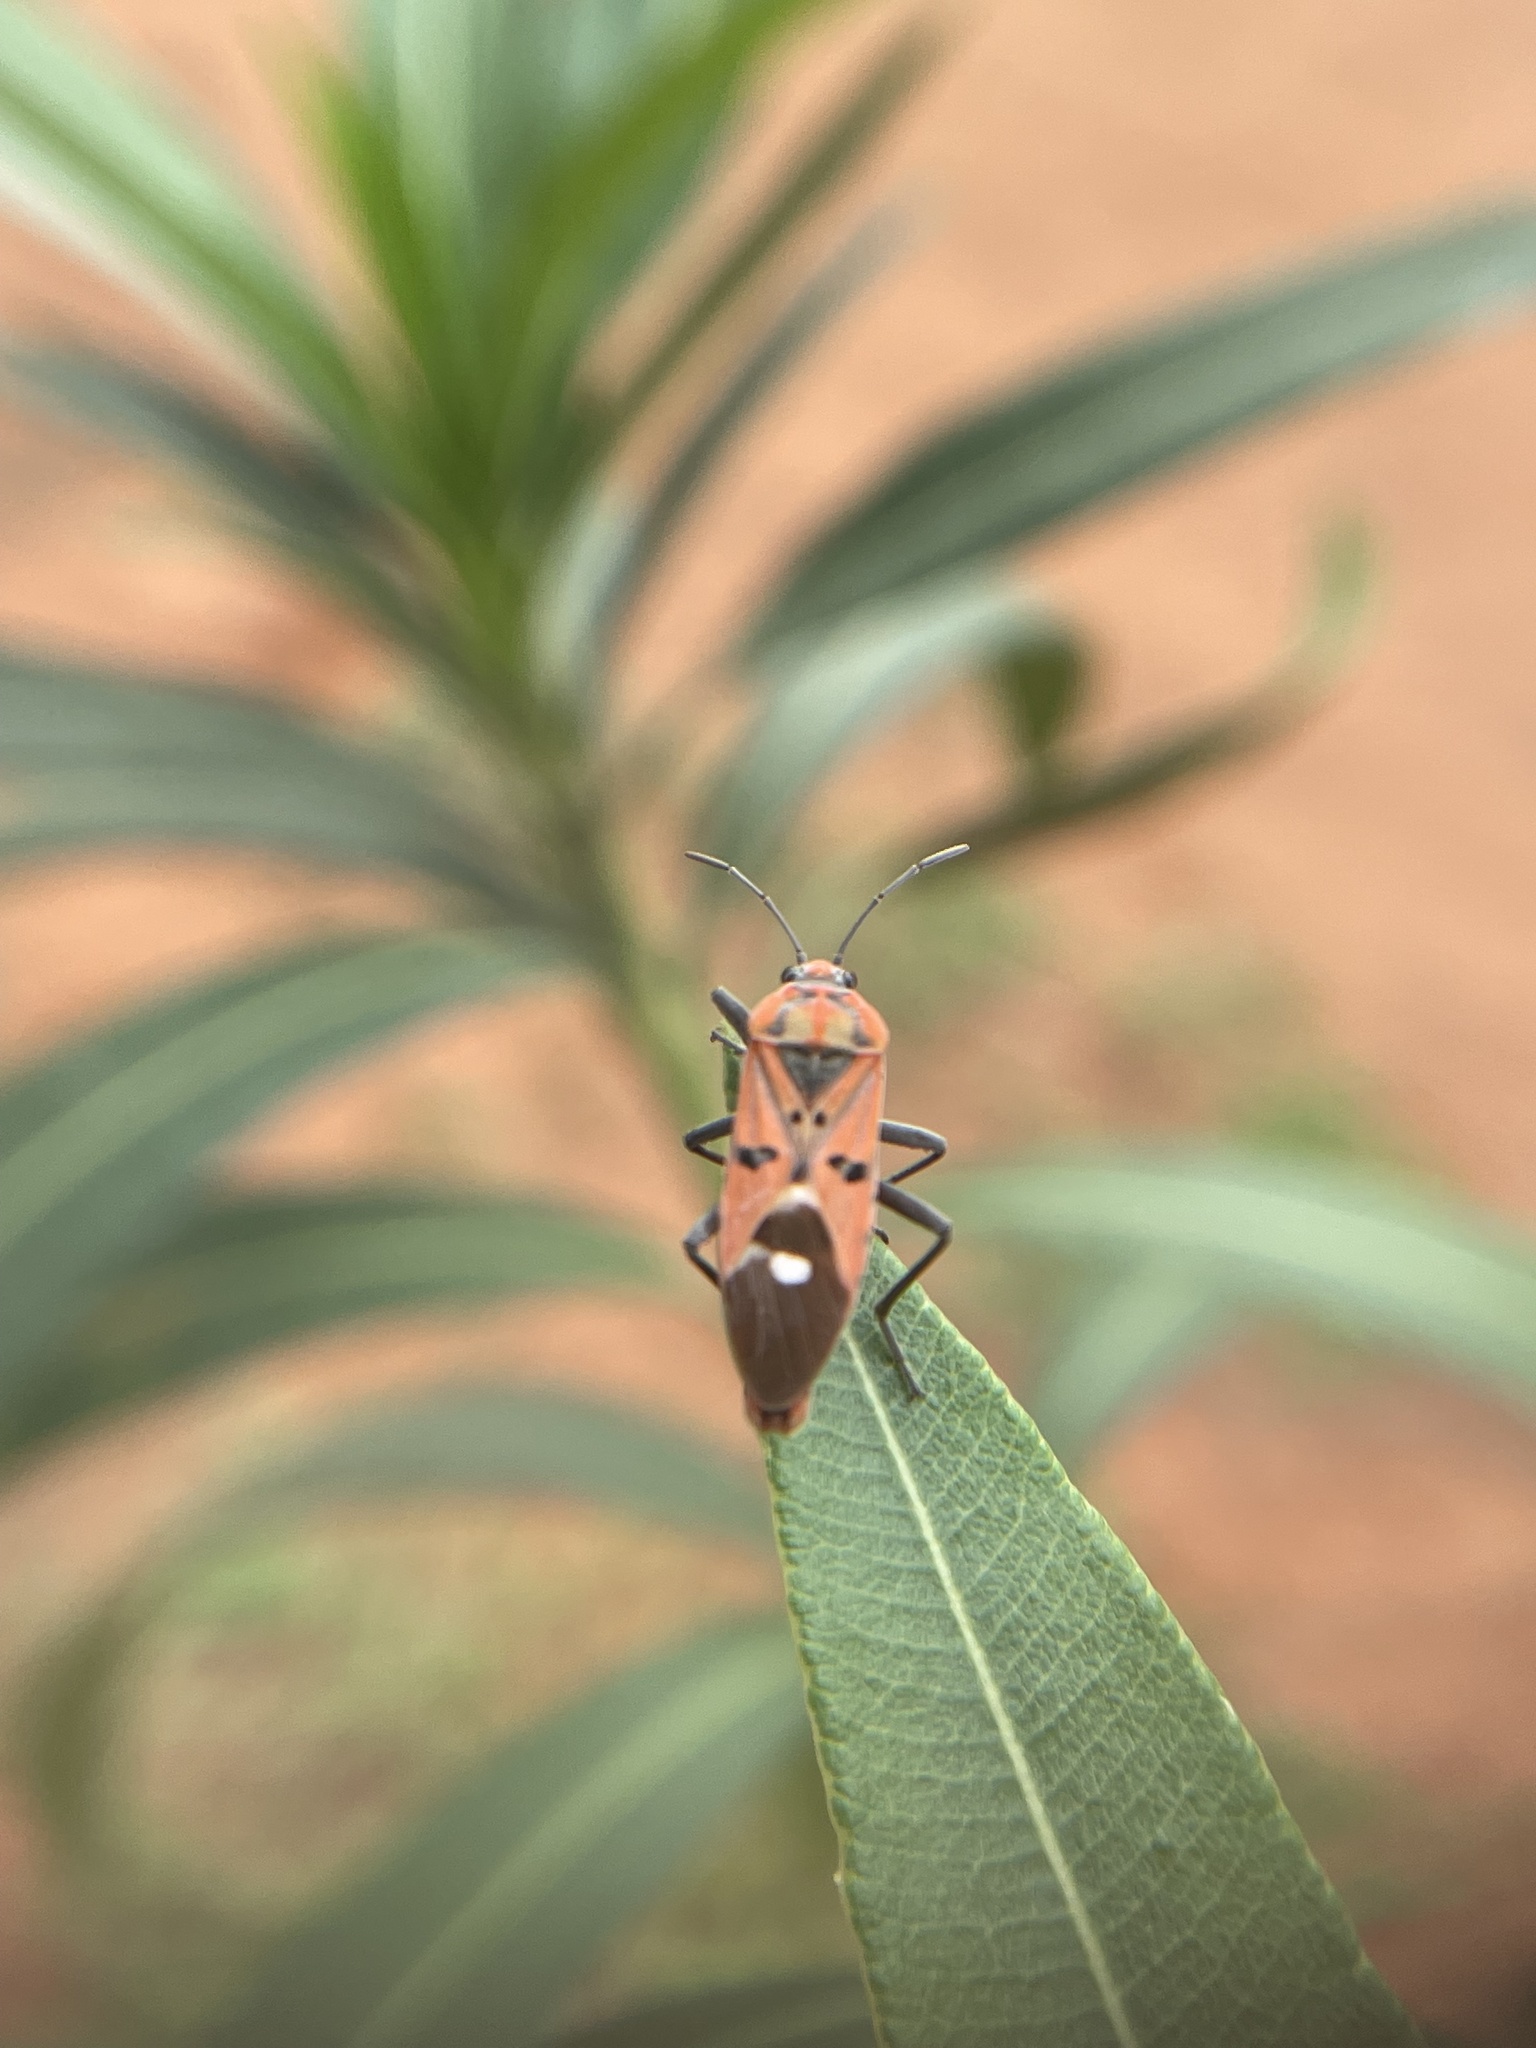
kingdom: Animalia
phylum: Arthropoda
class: Insecta
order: Hemiptera
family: Lygaeidae
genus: Spilostethus
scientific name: Spilostethus pandurus
